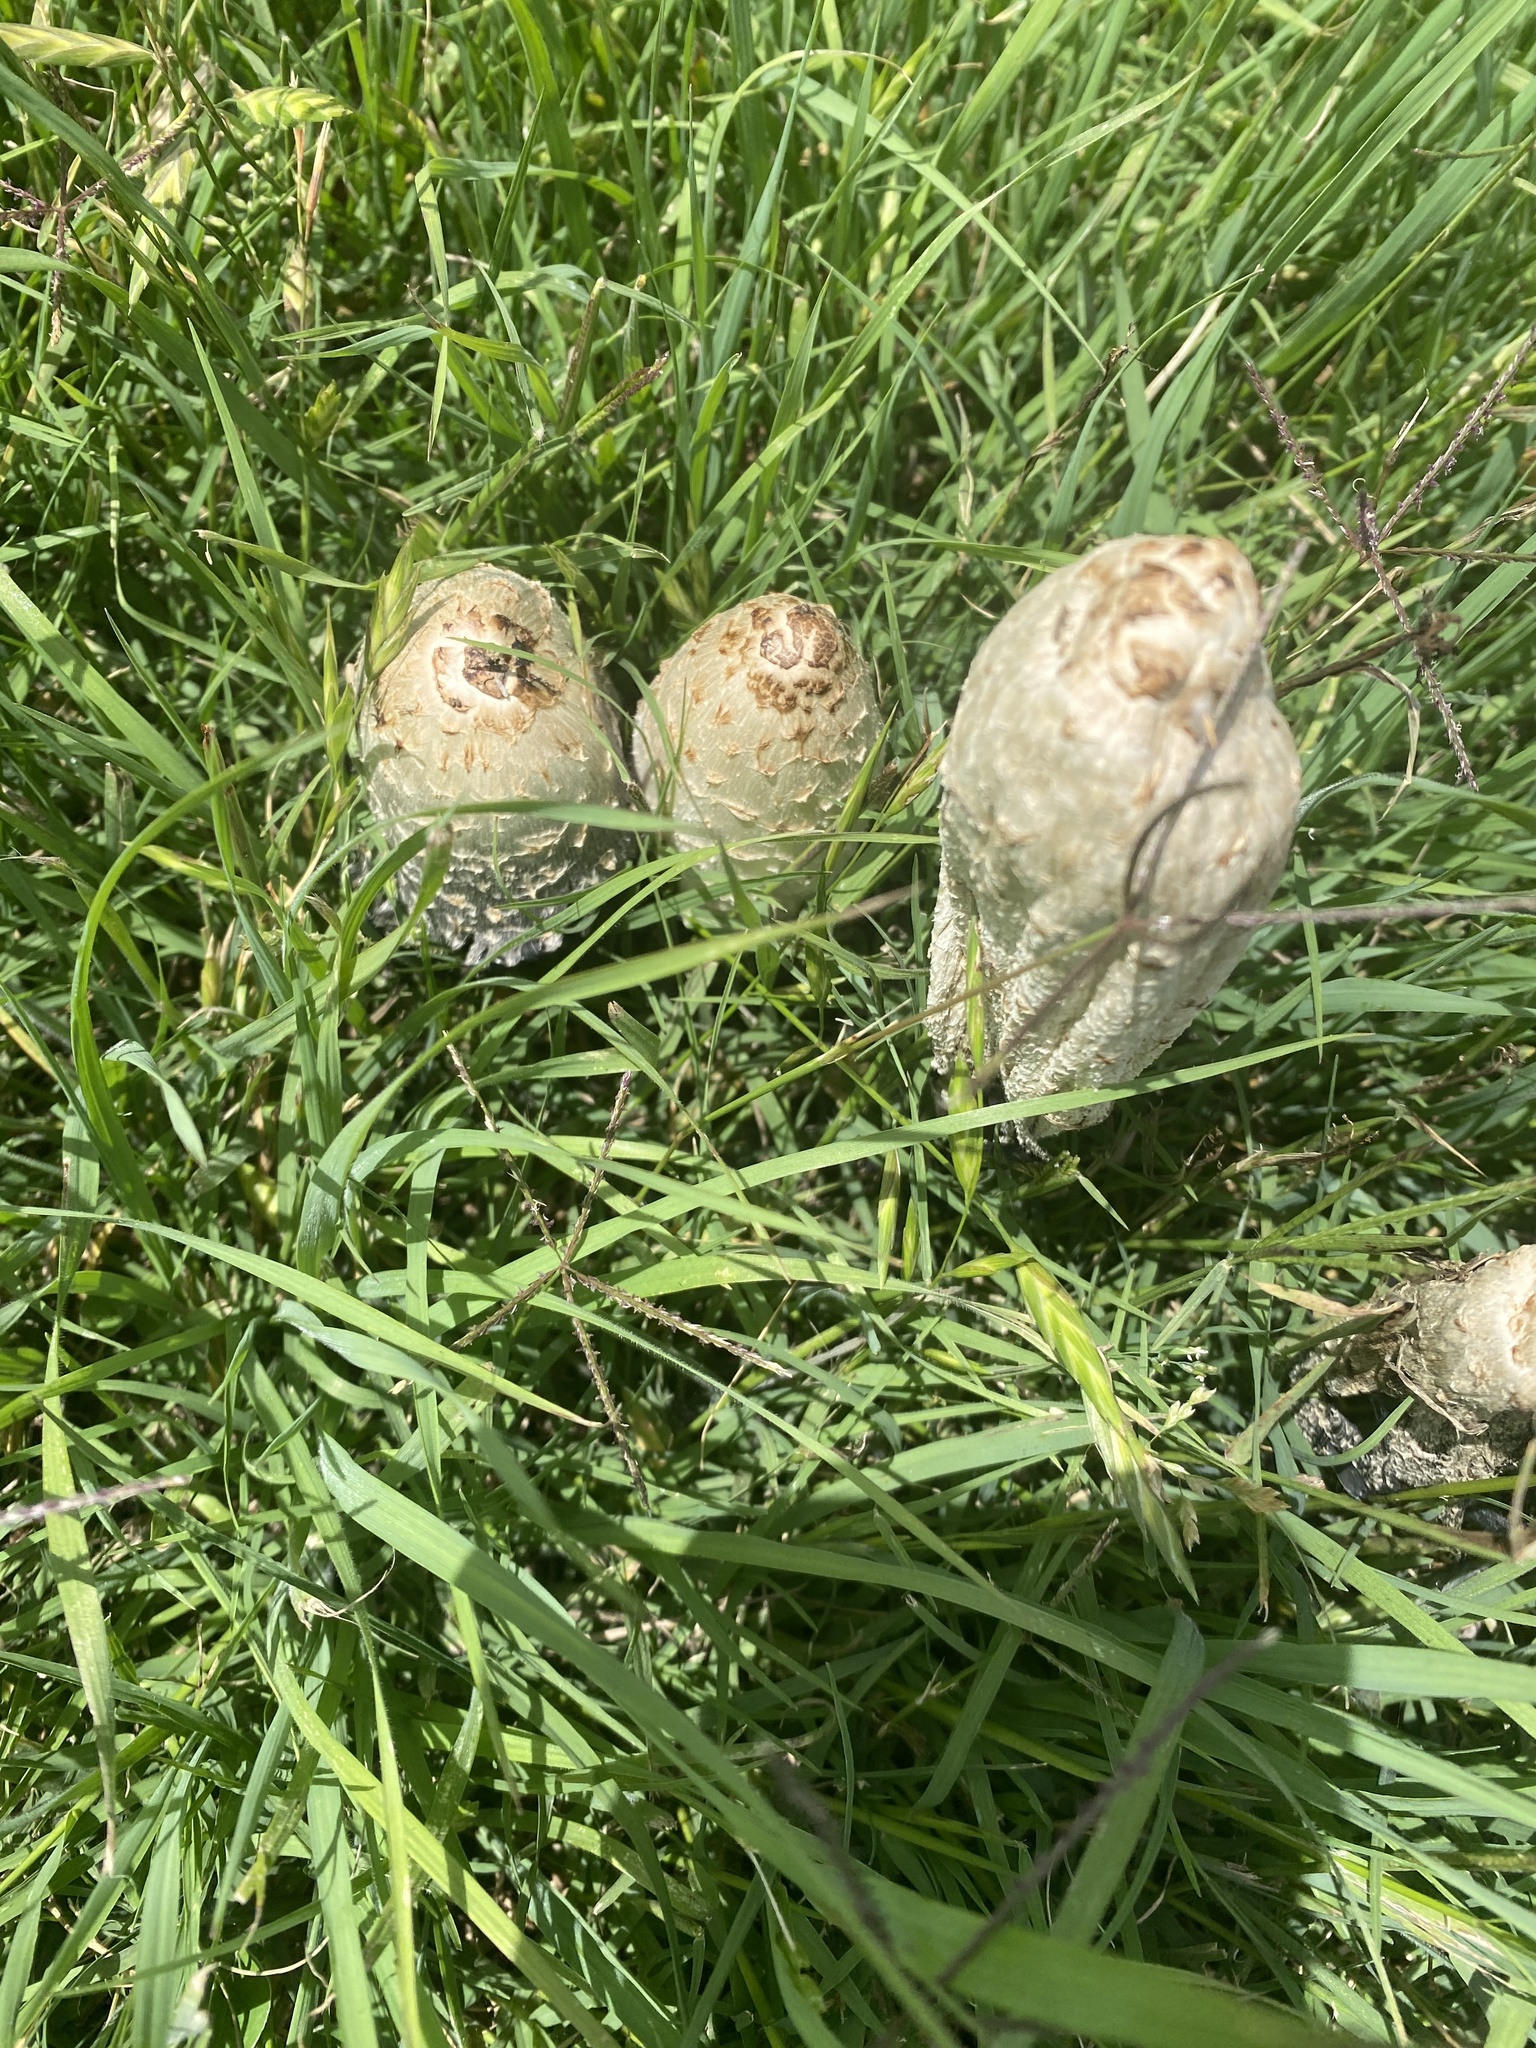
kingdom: Fungi
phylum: Basidiomycota
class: Agaricomycetes
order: Agaricales
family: Agaricaceae
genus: Coprinus
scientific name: Coprinus comatus
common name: Lawyer's wig
